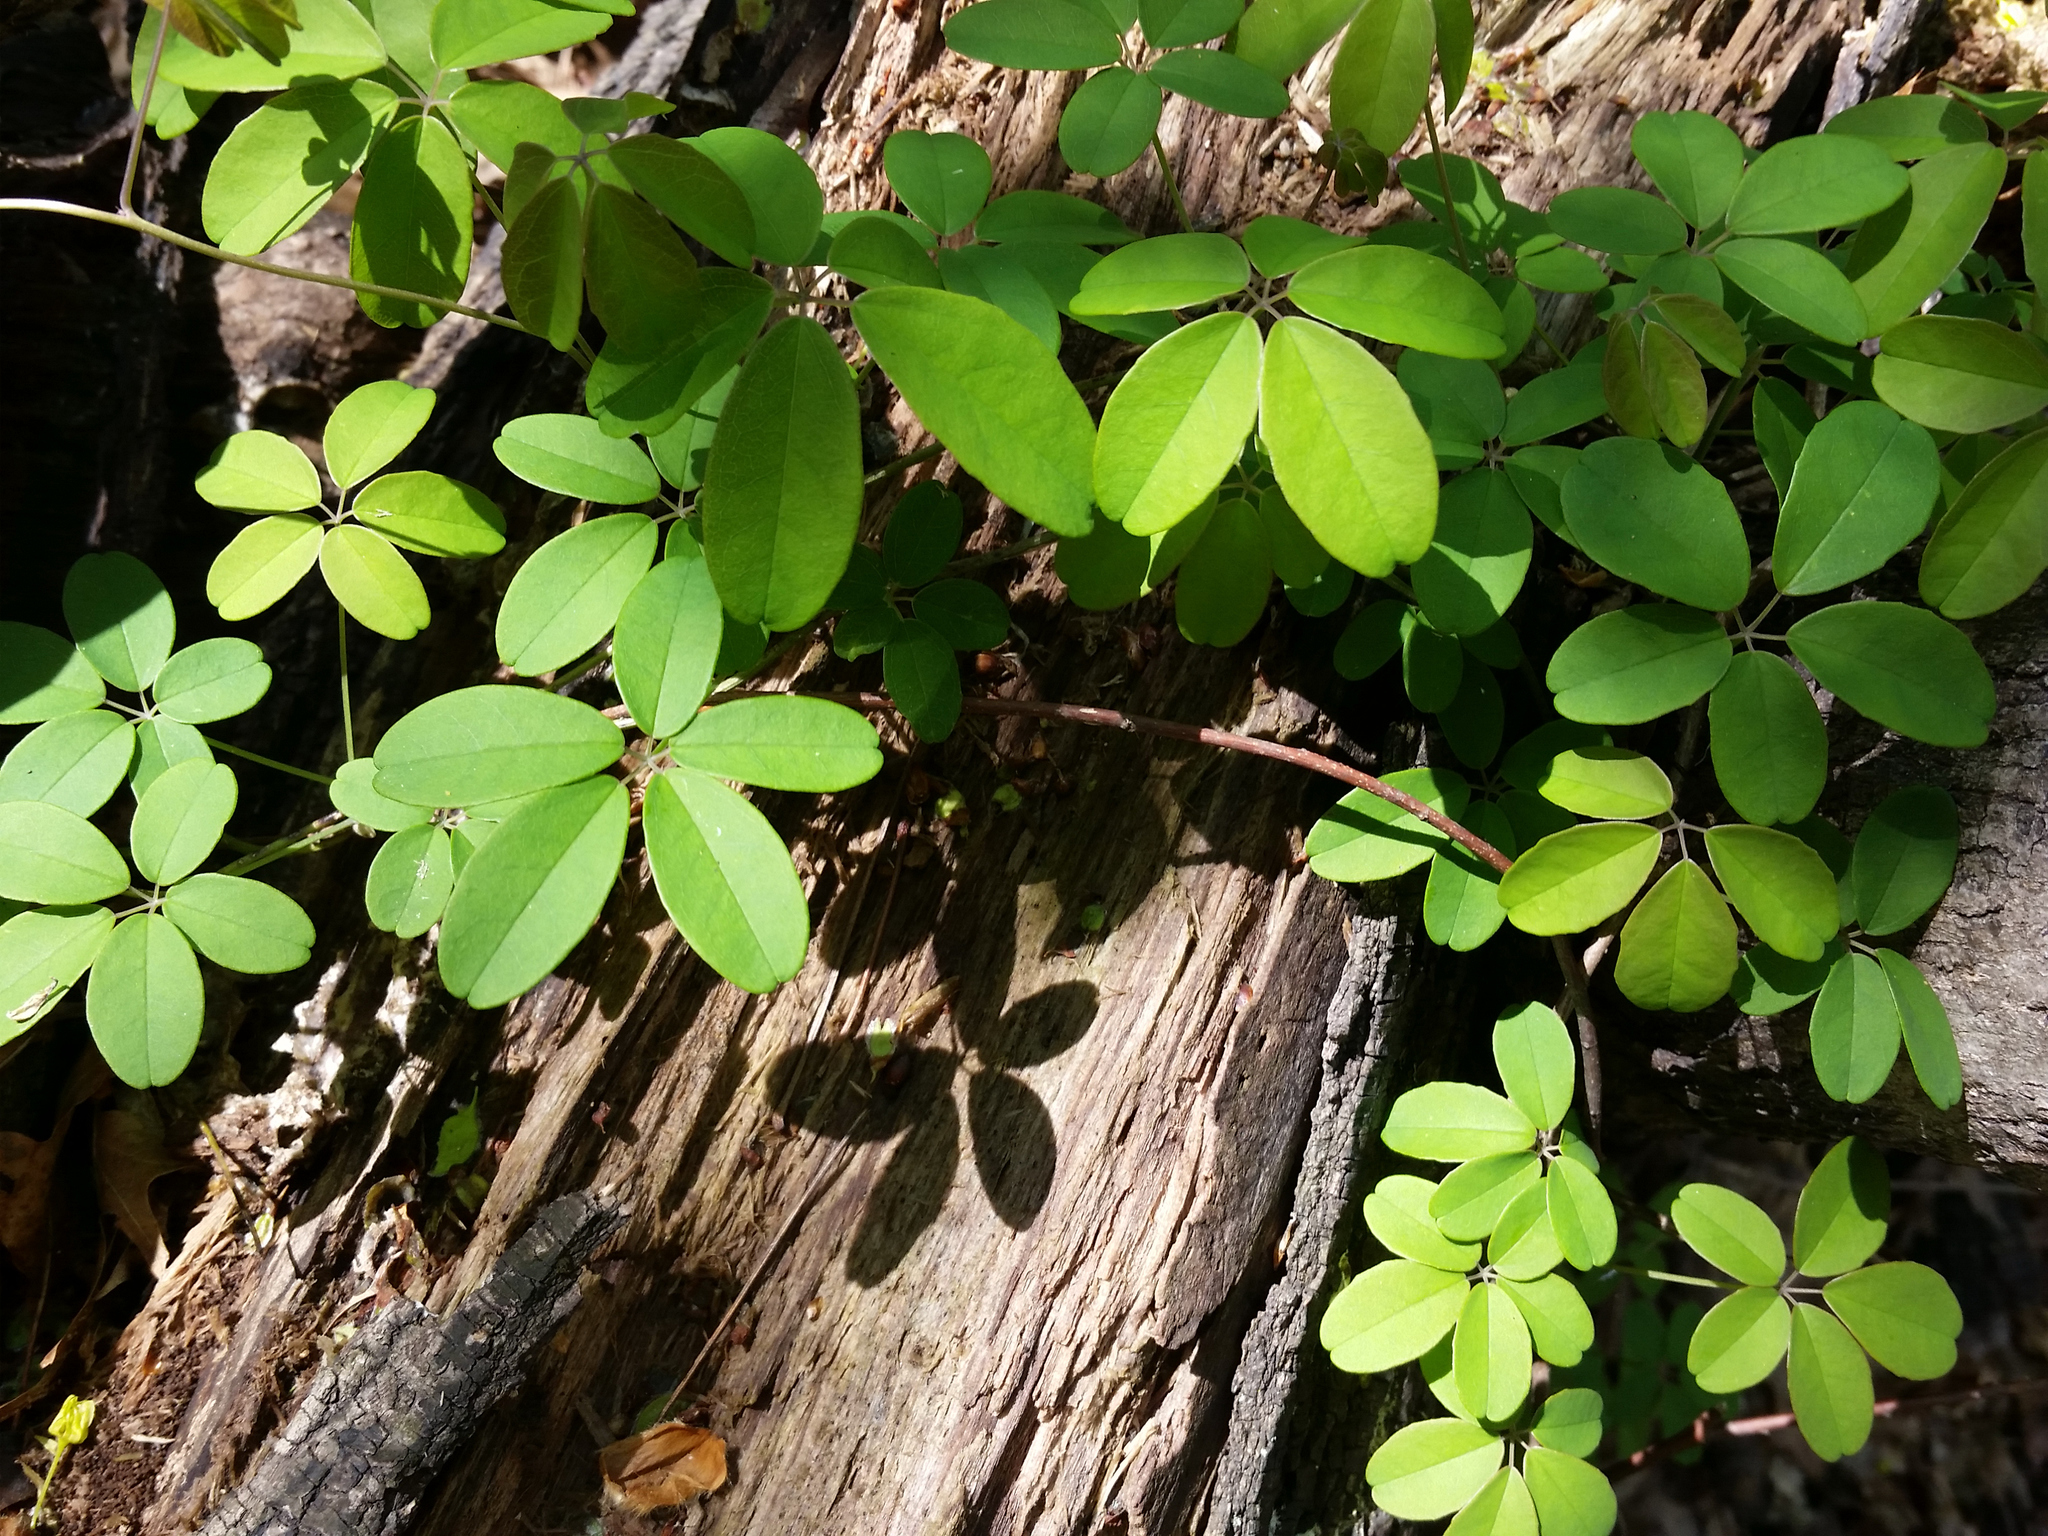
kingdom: Plantae
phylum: Tracheophyta
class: Magnoliopsida
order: Ranunculales
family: Lardizabalaceae
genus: Akebia
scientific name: Akebia quinata
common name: Five-leaf akebia
